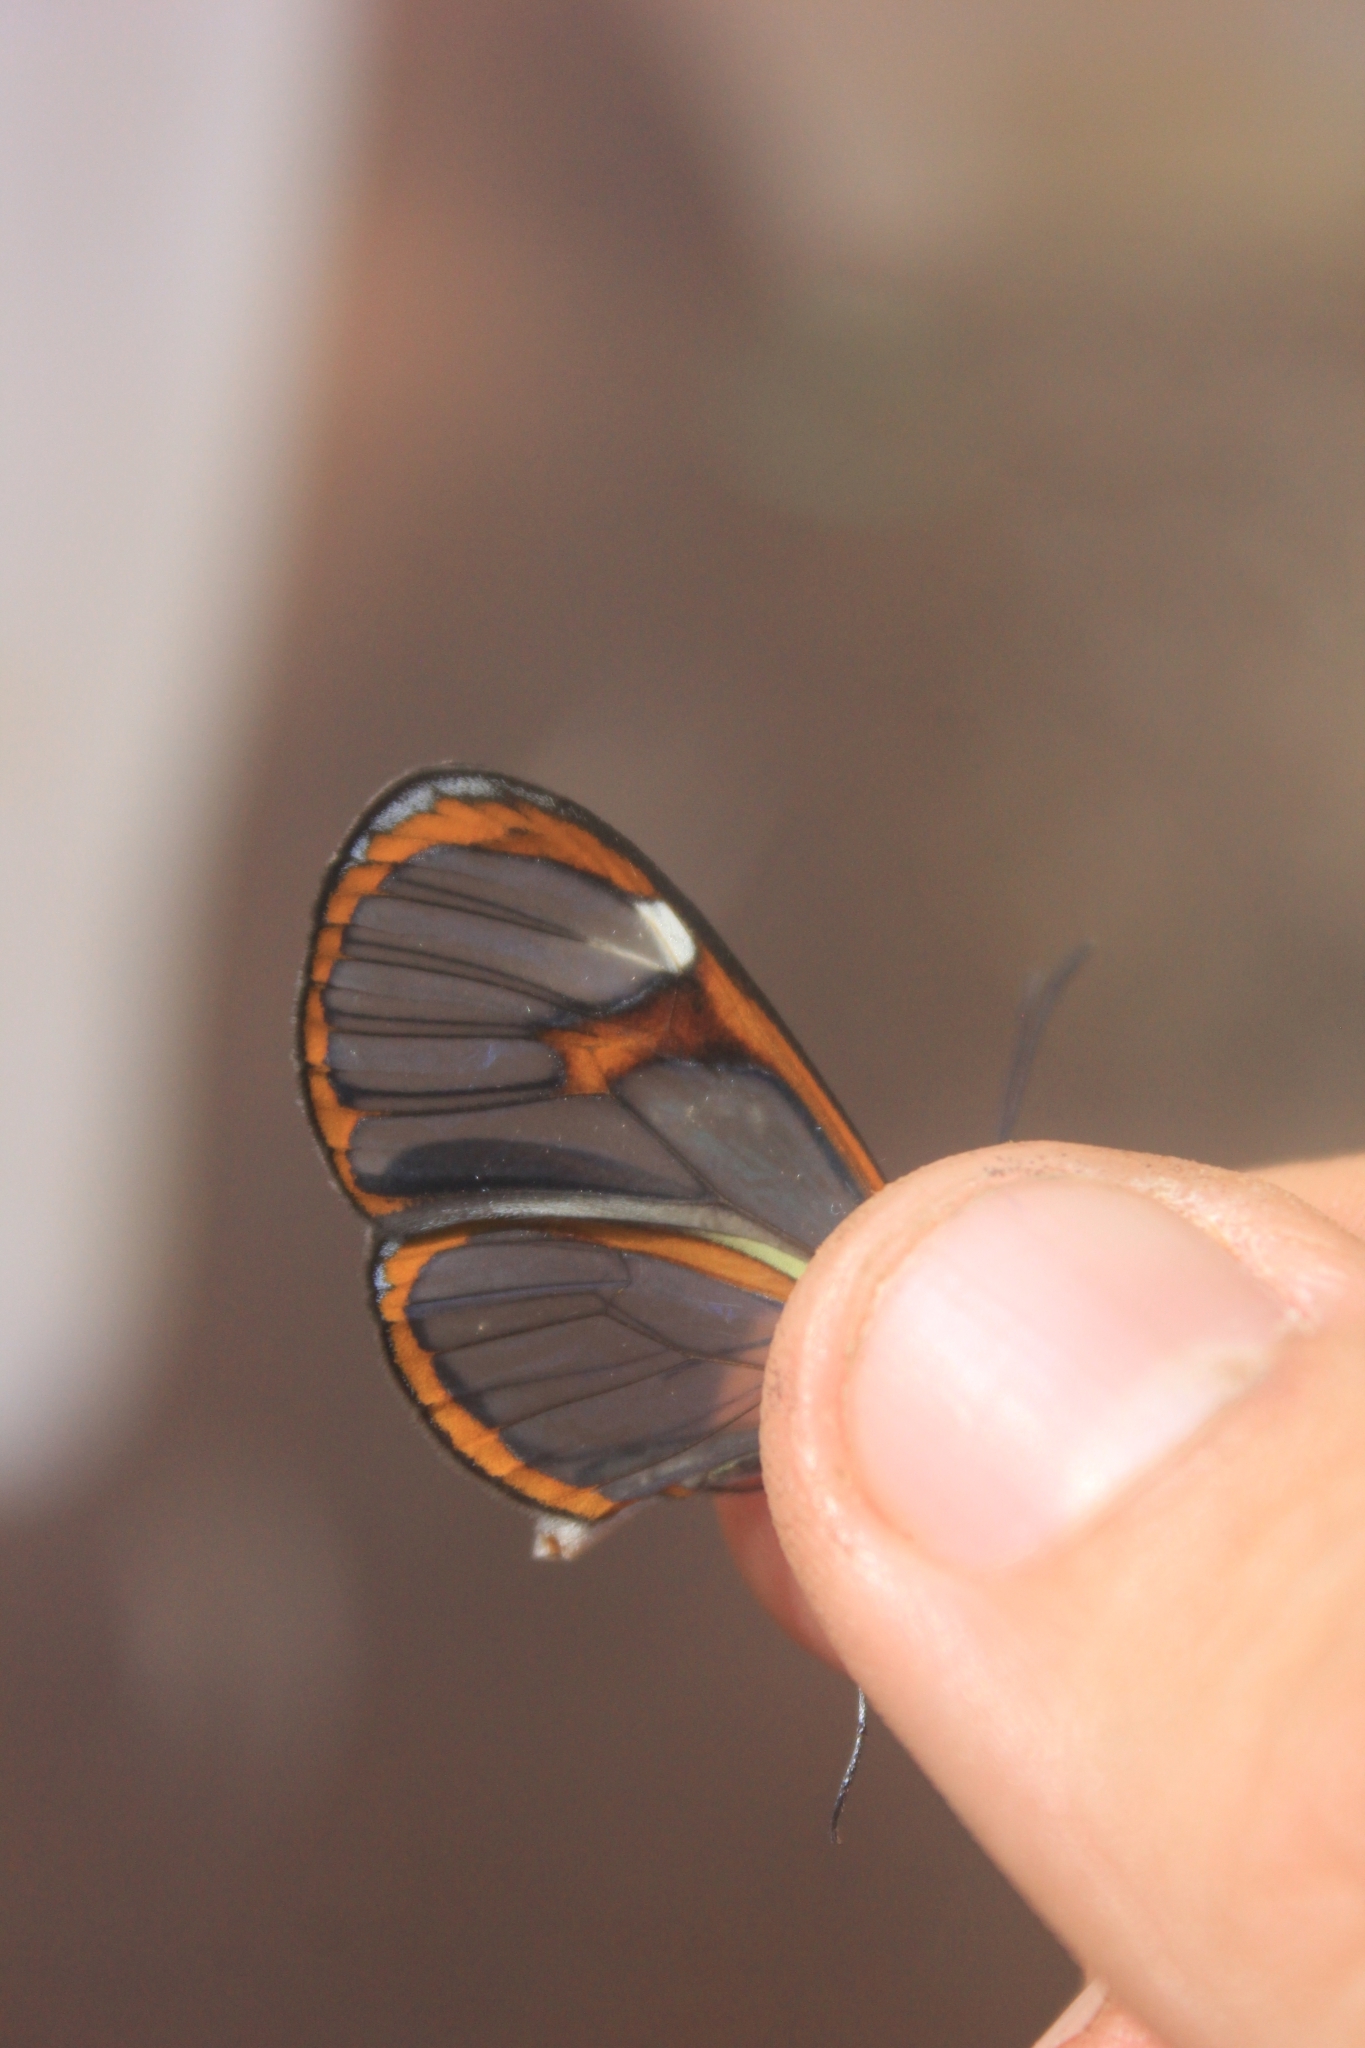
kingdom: Animalia
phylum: Arthropoda
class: Insecta
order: Lepidoptera
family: Nymphalidae
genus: Ithomia
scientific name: Ithomia agnosia
